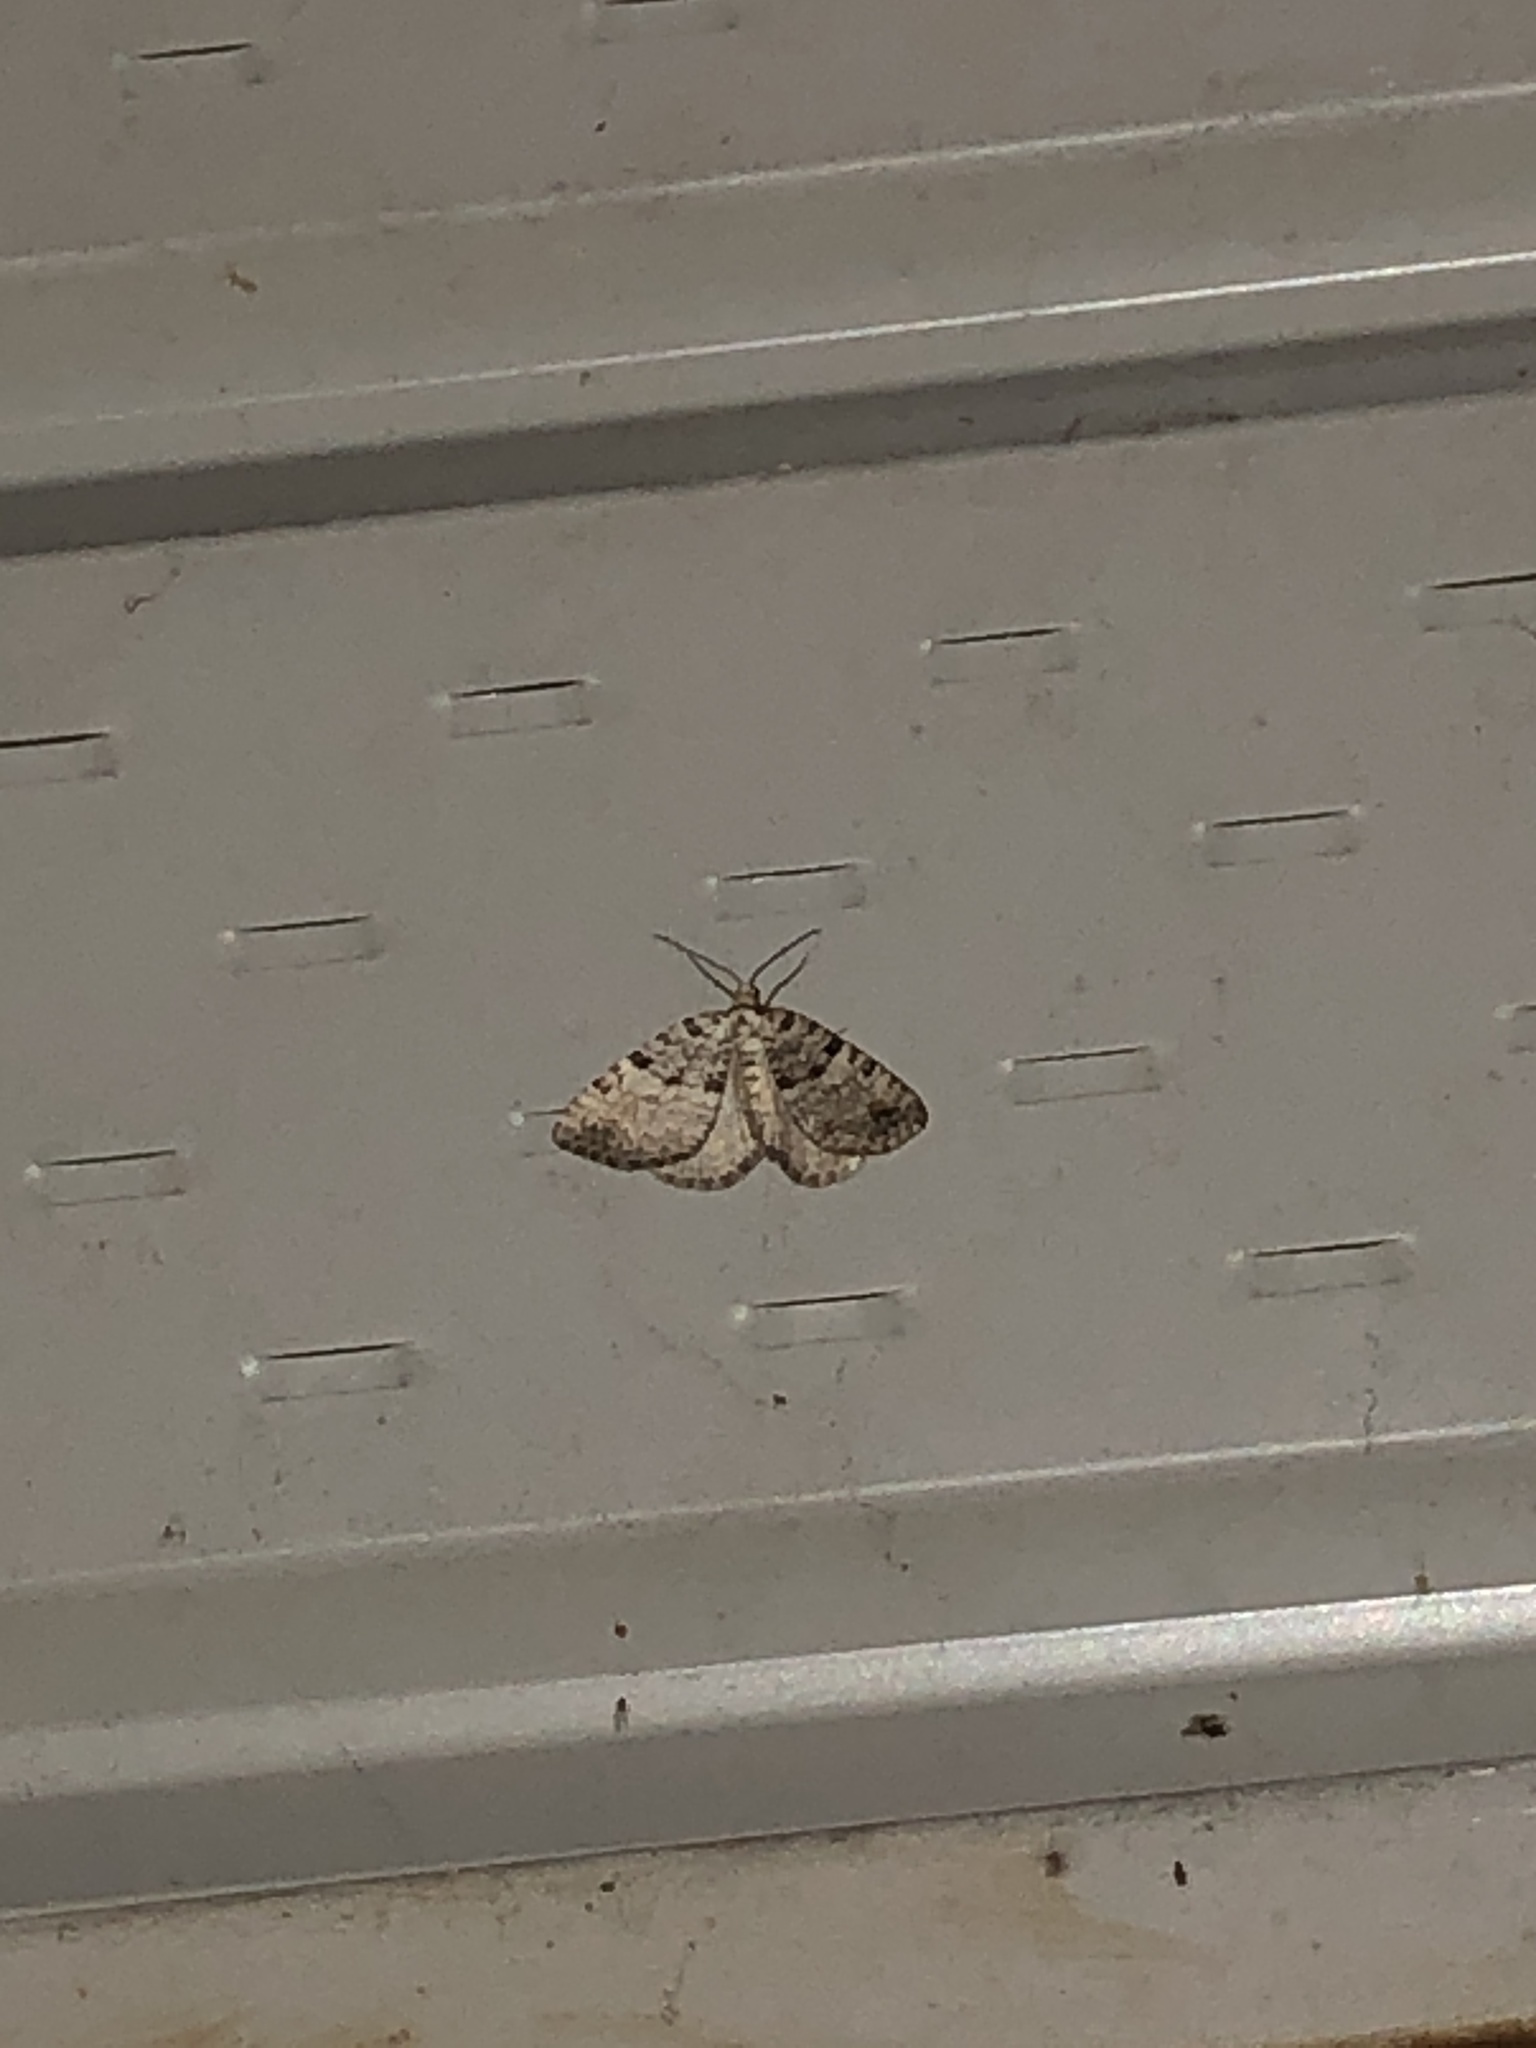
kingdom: Animalia
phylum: Arthropoda
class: Insecta
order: Lepidoptera
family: Geometridae
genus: Perizoma
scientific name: Perizoma curvilinea
